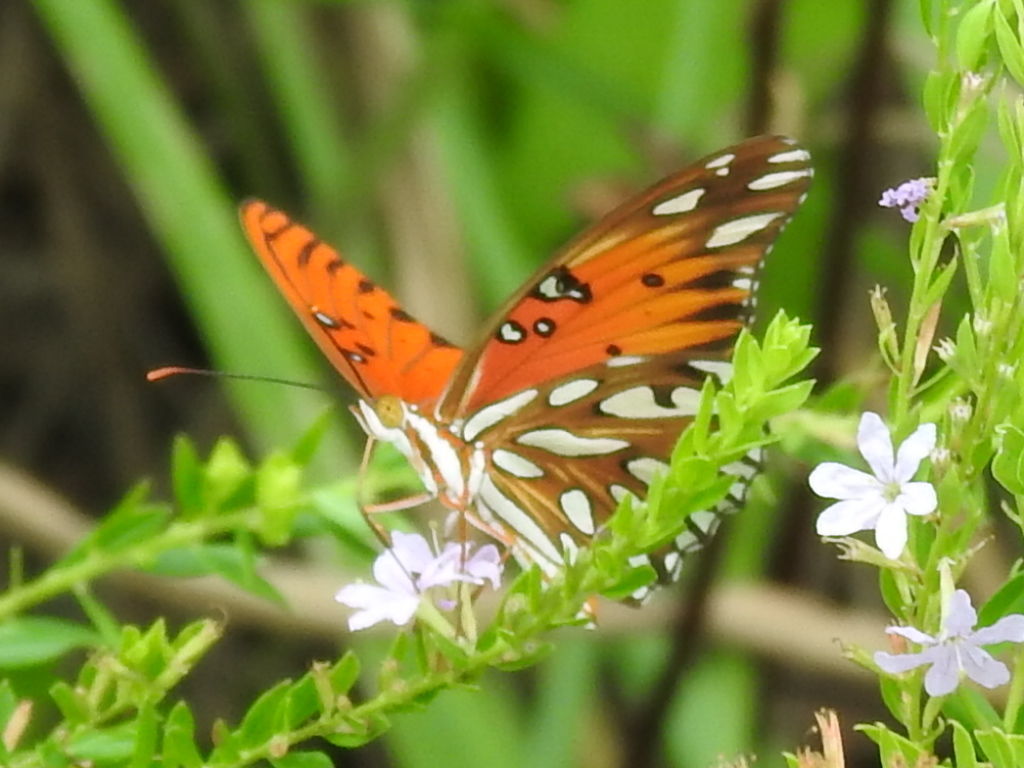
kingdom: Animalia
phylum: Arthropoda
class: Insecta
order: Lepidoptera
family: Nymphalidae
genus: Dione
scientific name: Dione vanillae
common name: Gulf fritillary
